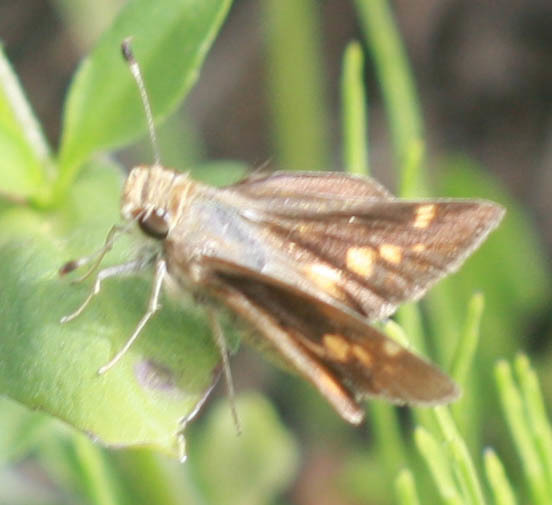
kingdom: Animalia
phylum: Arthropoda
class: Insecta
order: Lepidoptera
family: Hesperiidae
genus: Lon
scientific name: Lon melane
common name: Umber skipper
